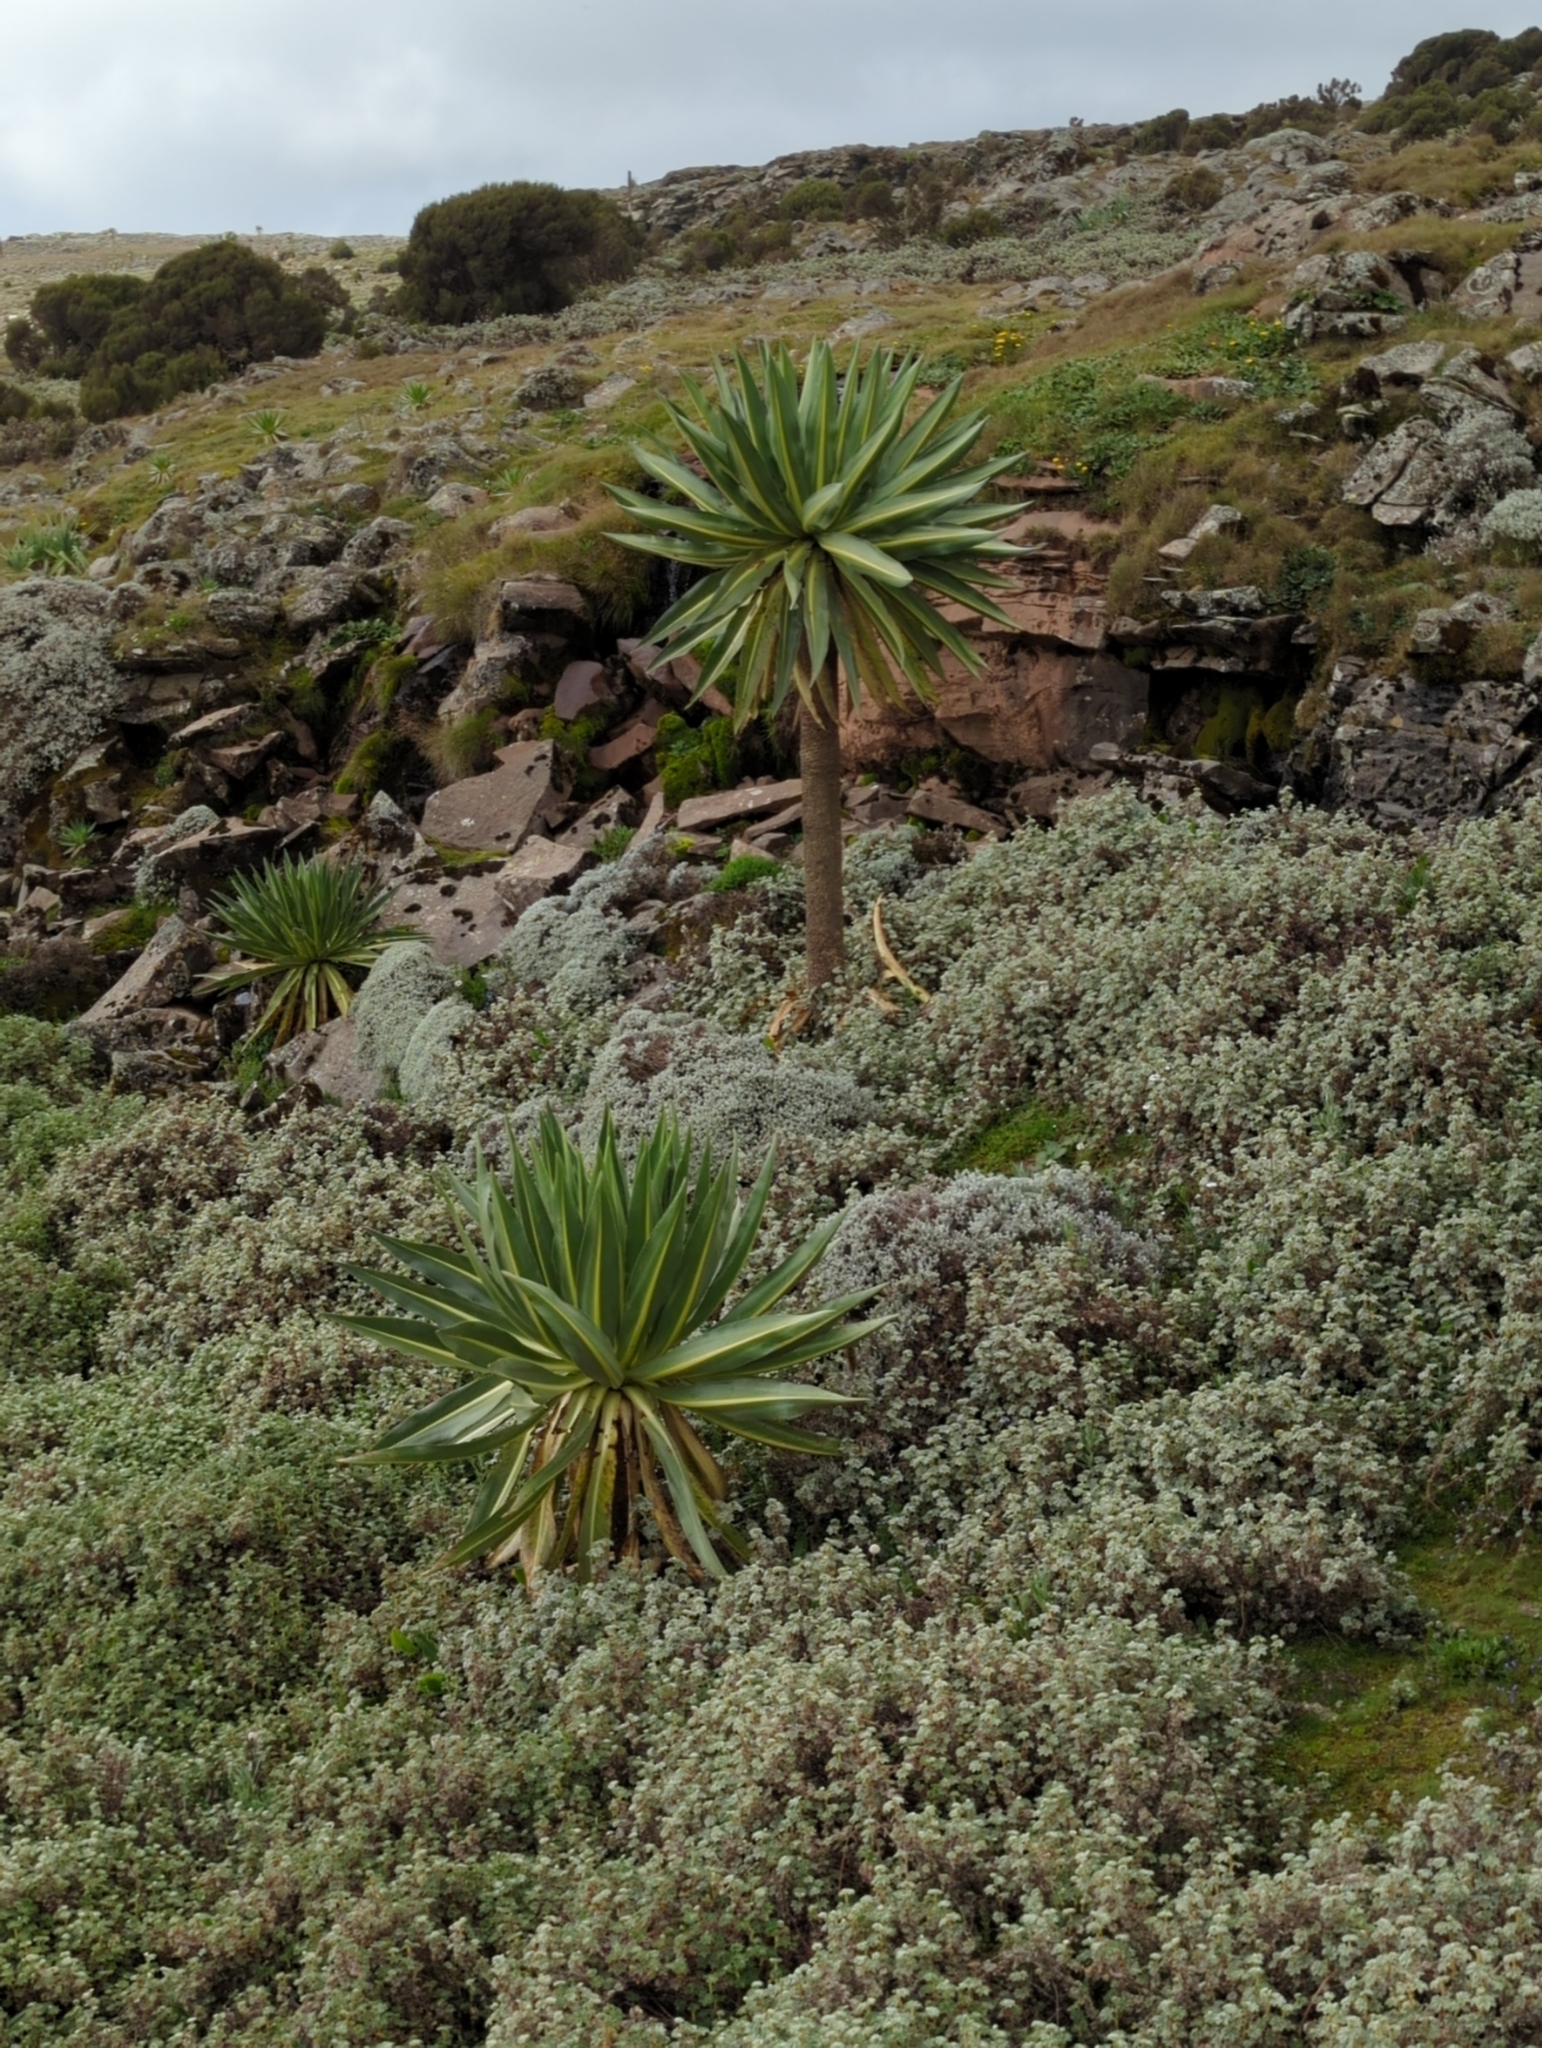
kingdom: Plantae
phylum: Tracheophyta
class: Magnoliopsida
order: Asterales
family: Campanulaceae
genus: Lobelia
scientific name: Lobelia rhynchopetalum
